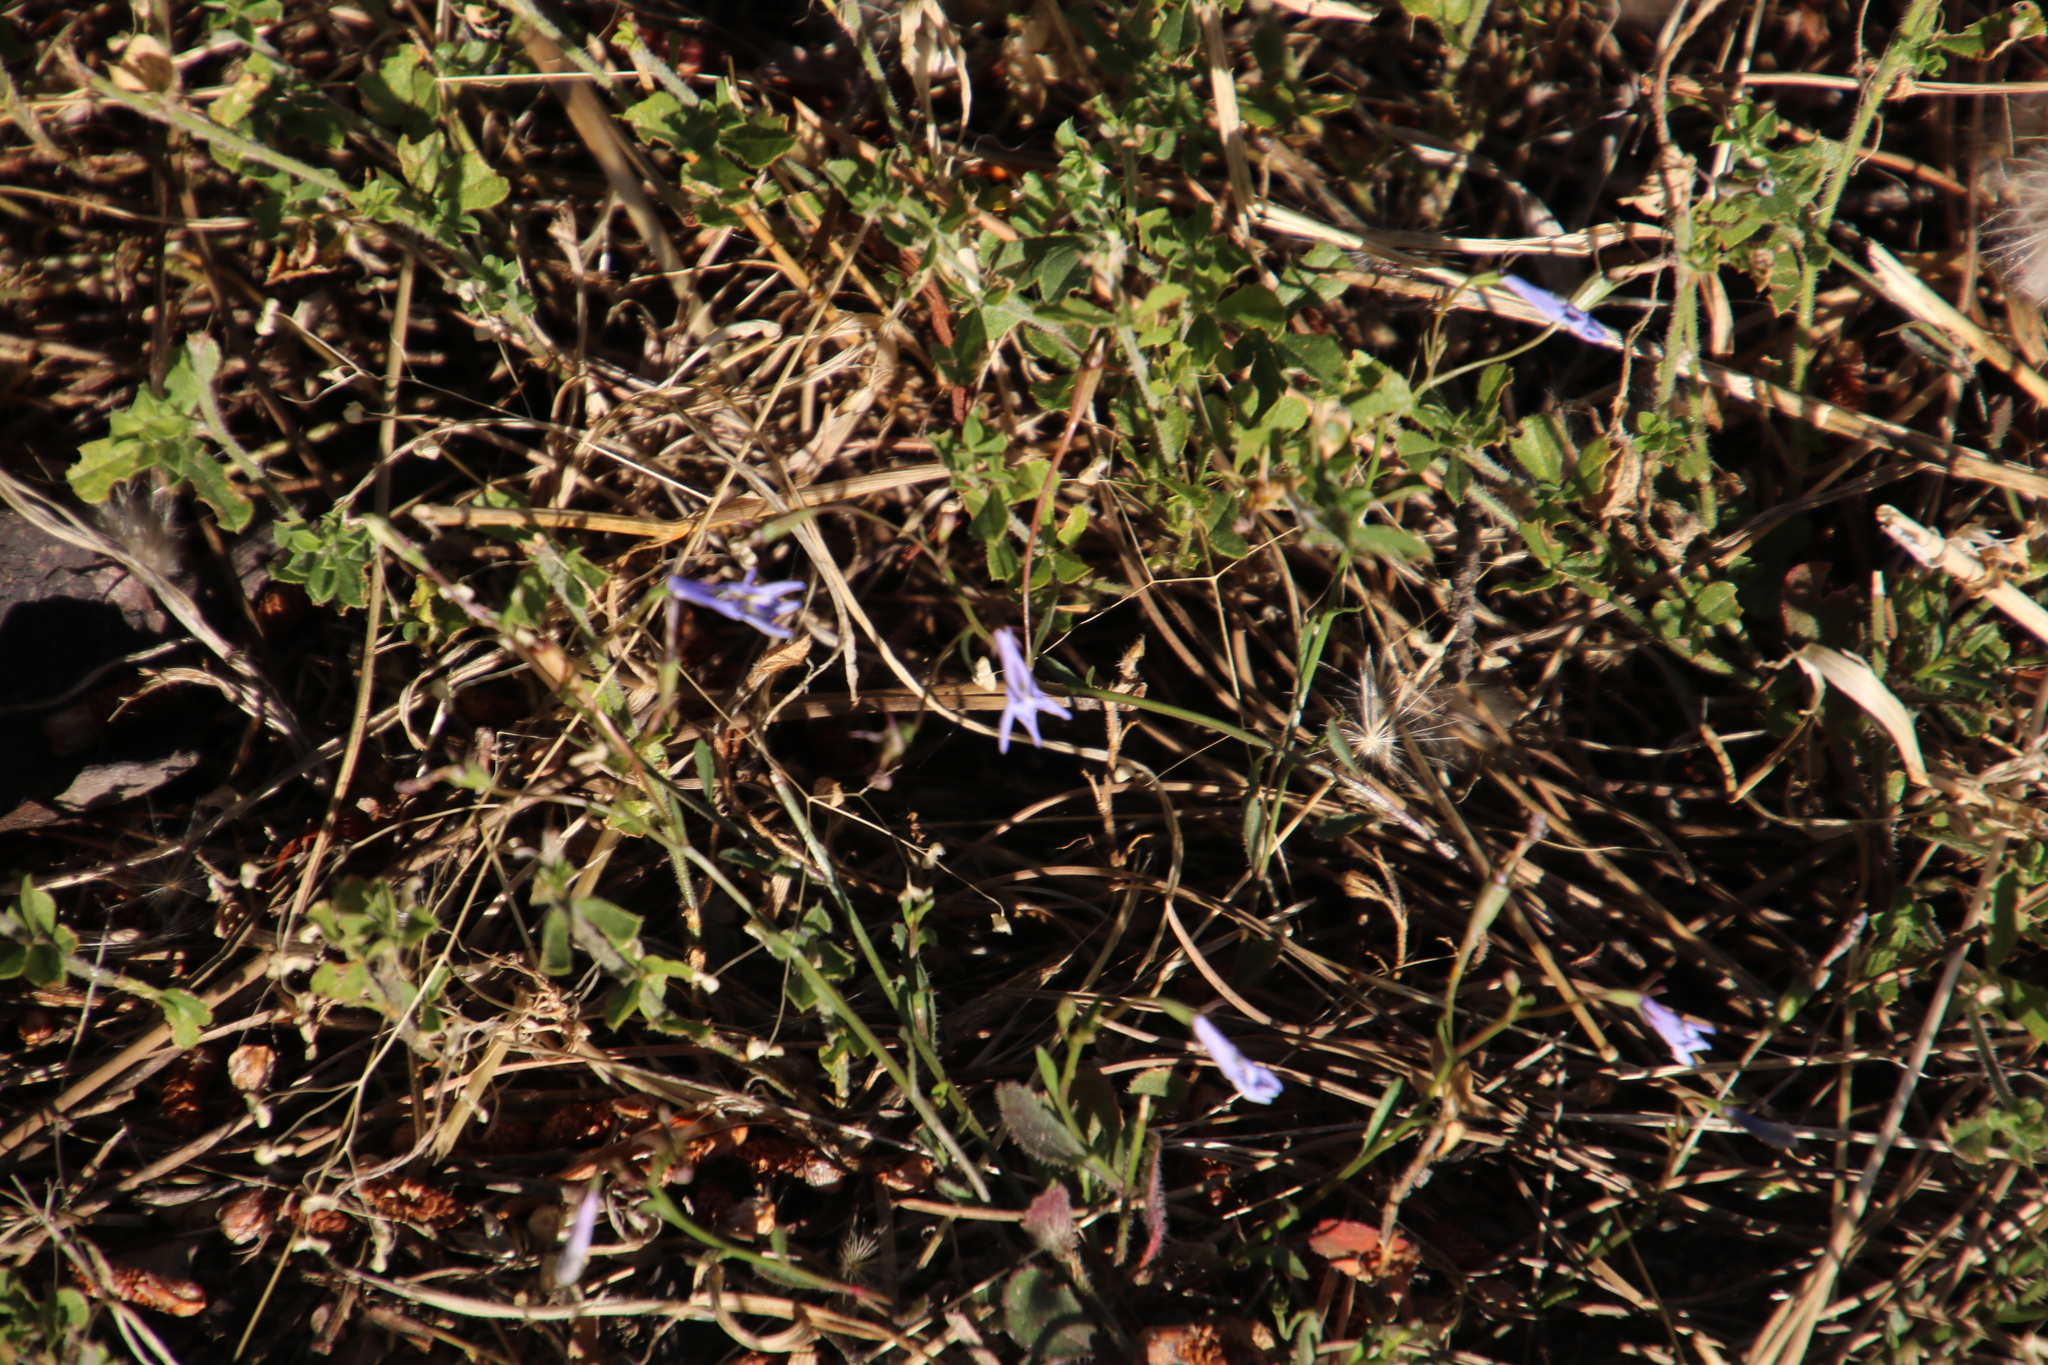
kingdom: Plantae
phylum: Tracheophyta
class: Magnoliopsida
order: Asterales
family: Campanulaceae
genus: Lobelia
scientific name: Lobelia erinus
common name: Edging lobelia
